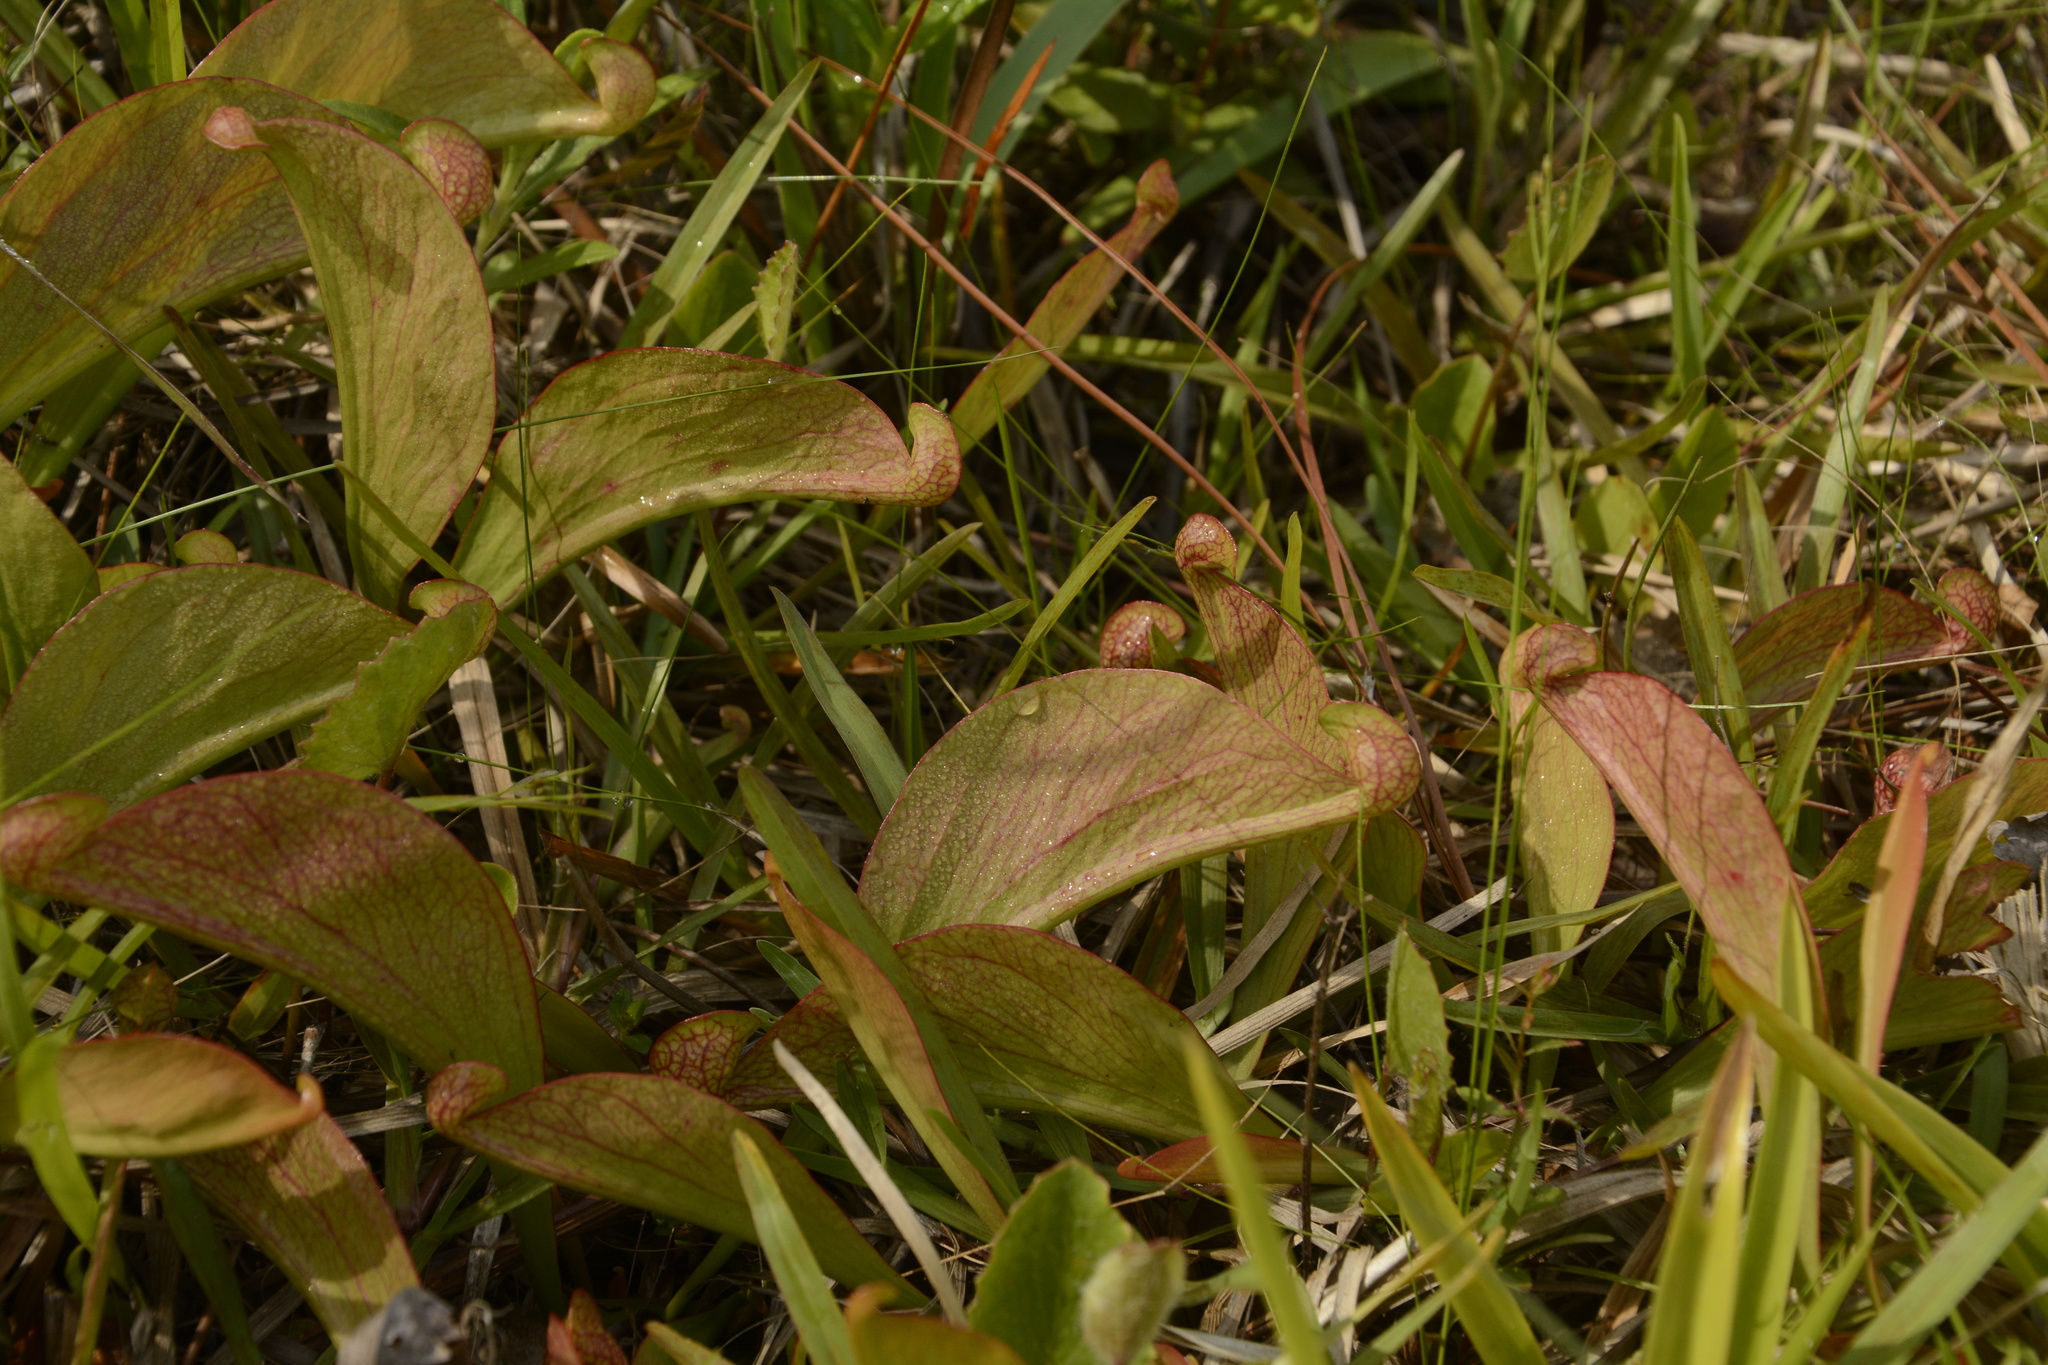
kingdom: Plantae
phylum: Tracheophyta
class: Magnoliopsida
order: Ericales
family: Sarraceniaceae
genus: Sarracenia
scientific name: Sarracenia psittacina
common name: Parrot pitcherplant
